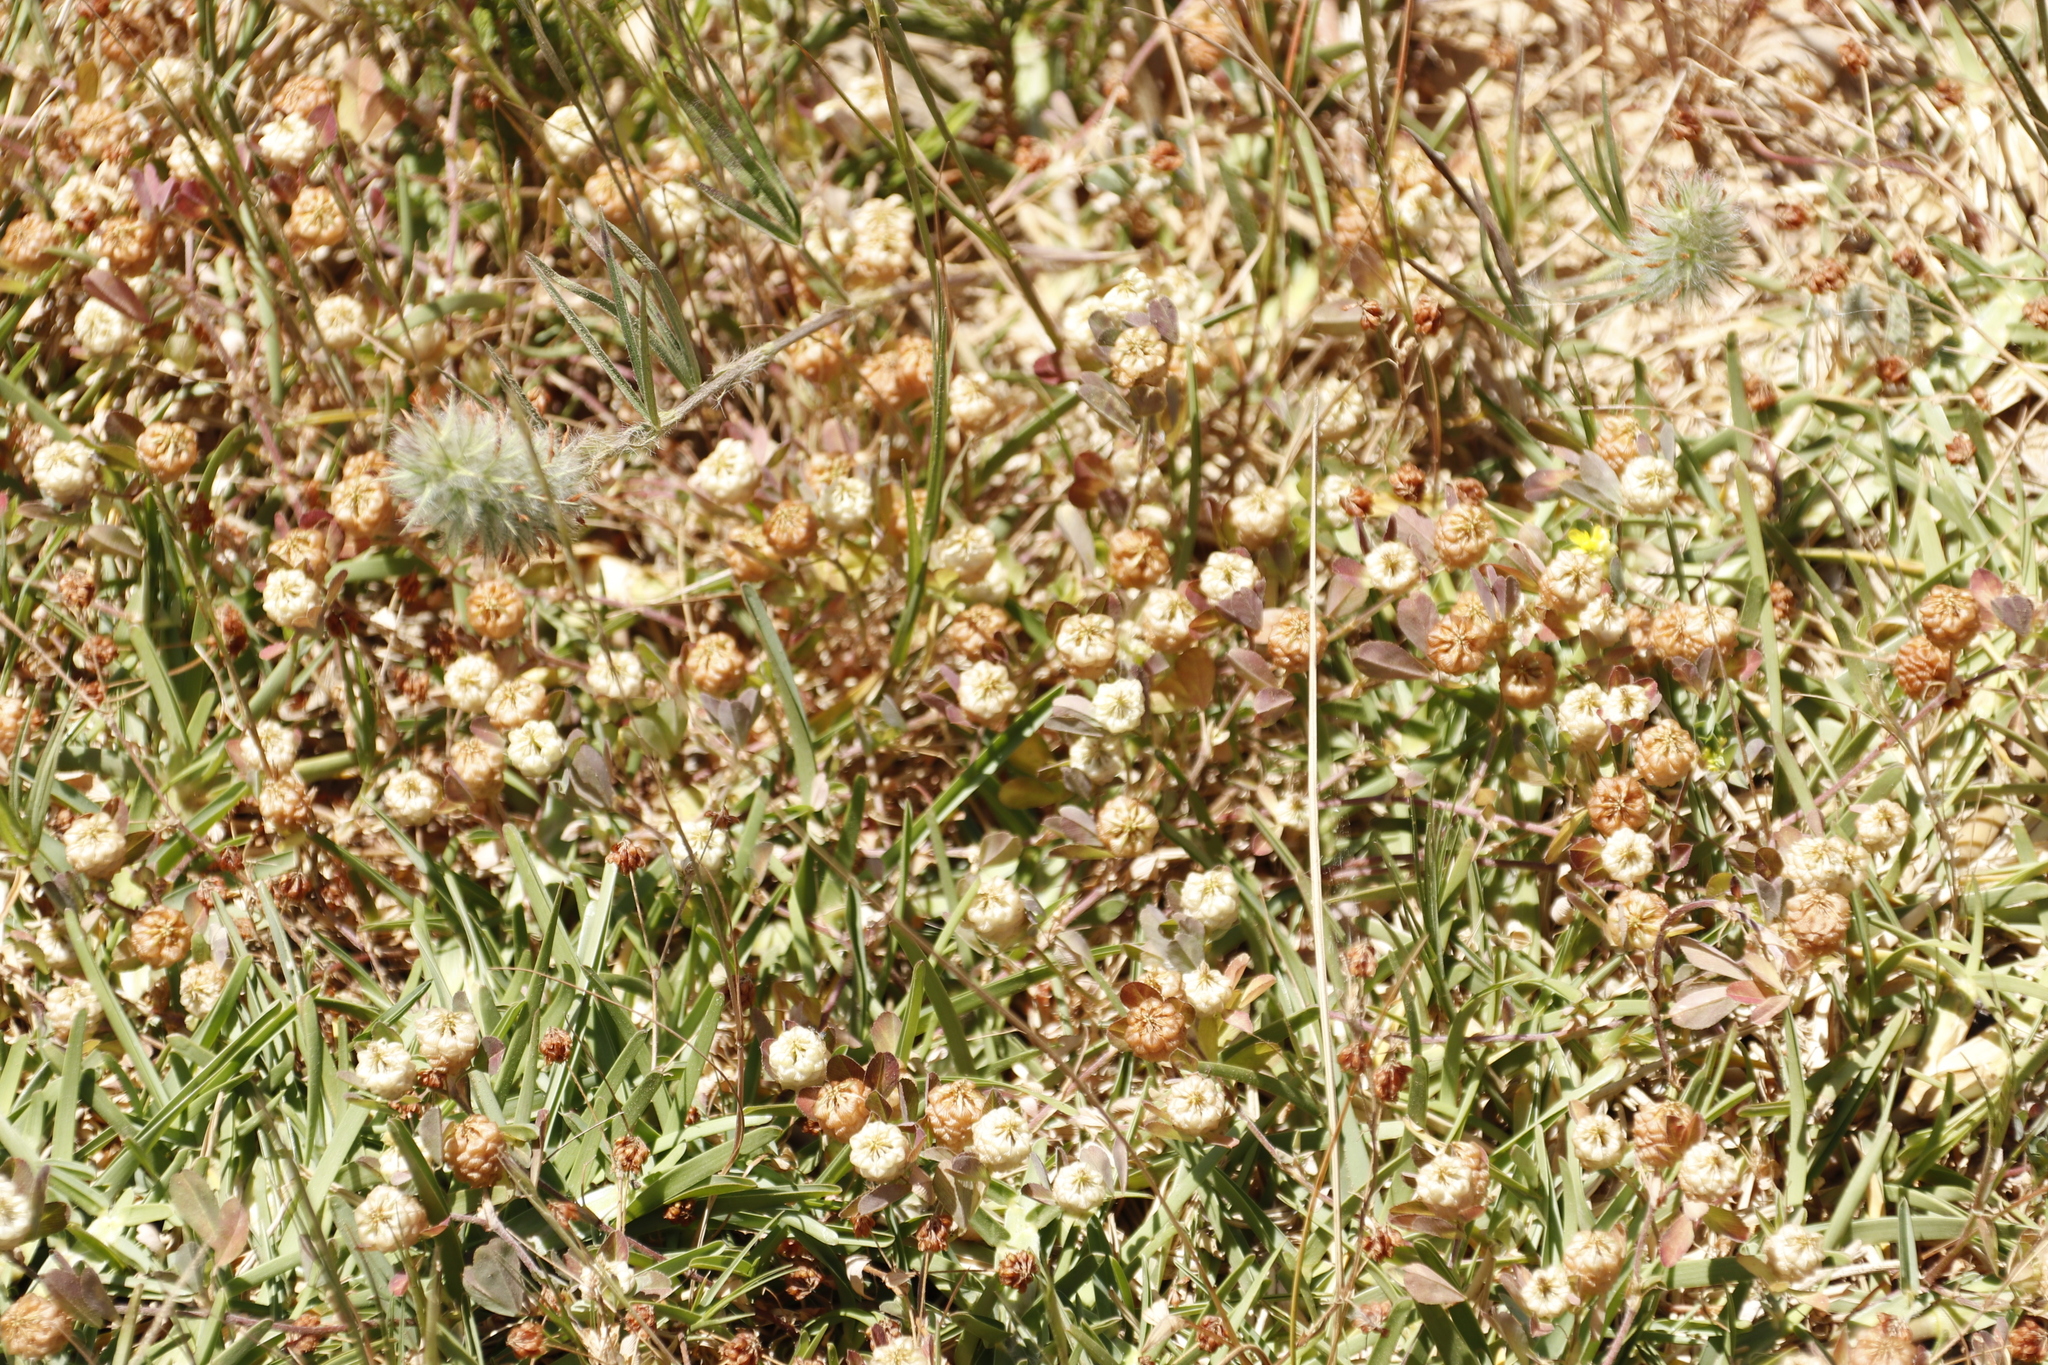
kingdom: Plantae
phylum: Tracheophyta
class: Magnoliopsida
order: Fabales
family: Fabaceae
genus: Trifolium
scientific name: Trifolium campestre
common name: Field clover
